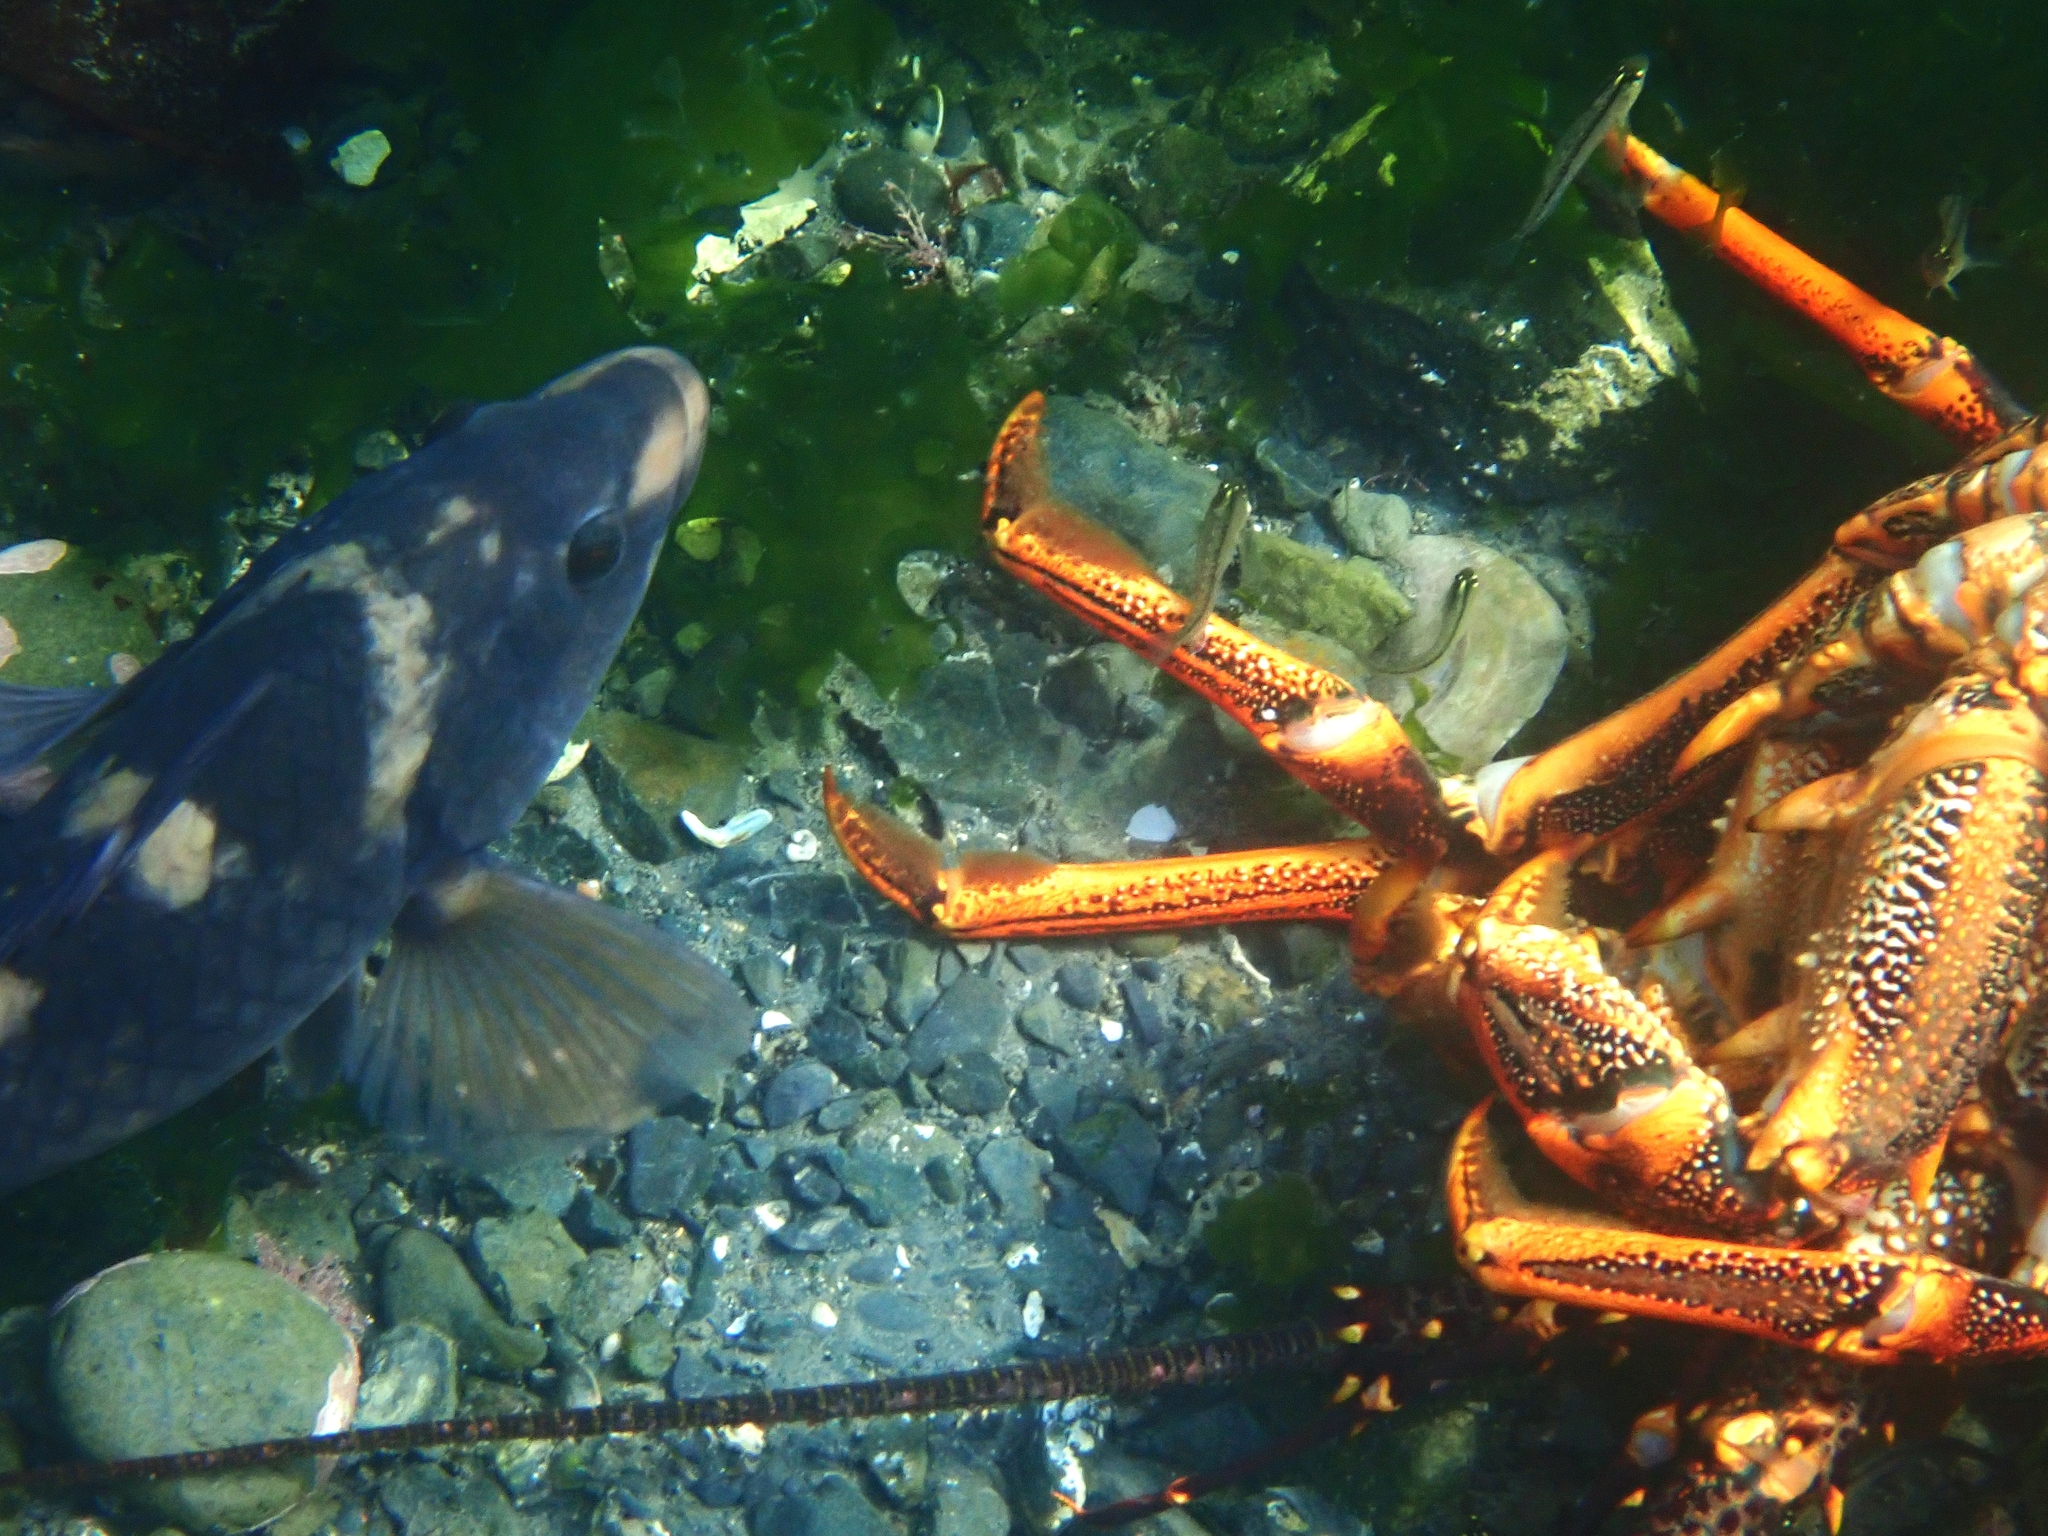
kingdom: Animalia
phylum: Arthropoda
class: Malacostraca
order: Decapoda
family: Palinuridae
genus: Jasus
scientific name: Jasus edwardsii
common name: Red rock lobster
